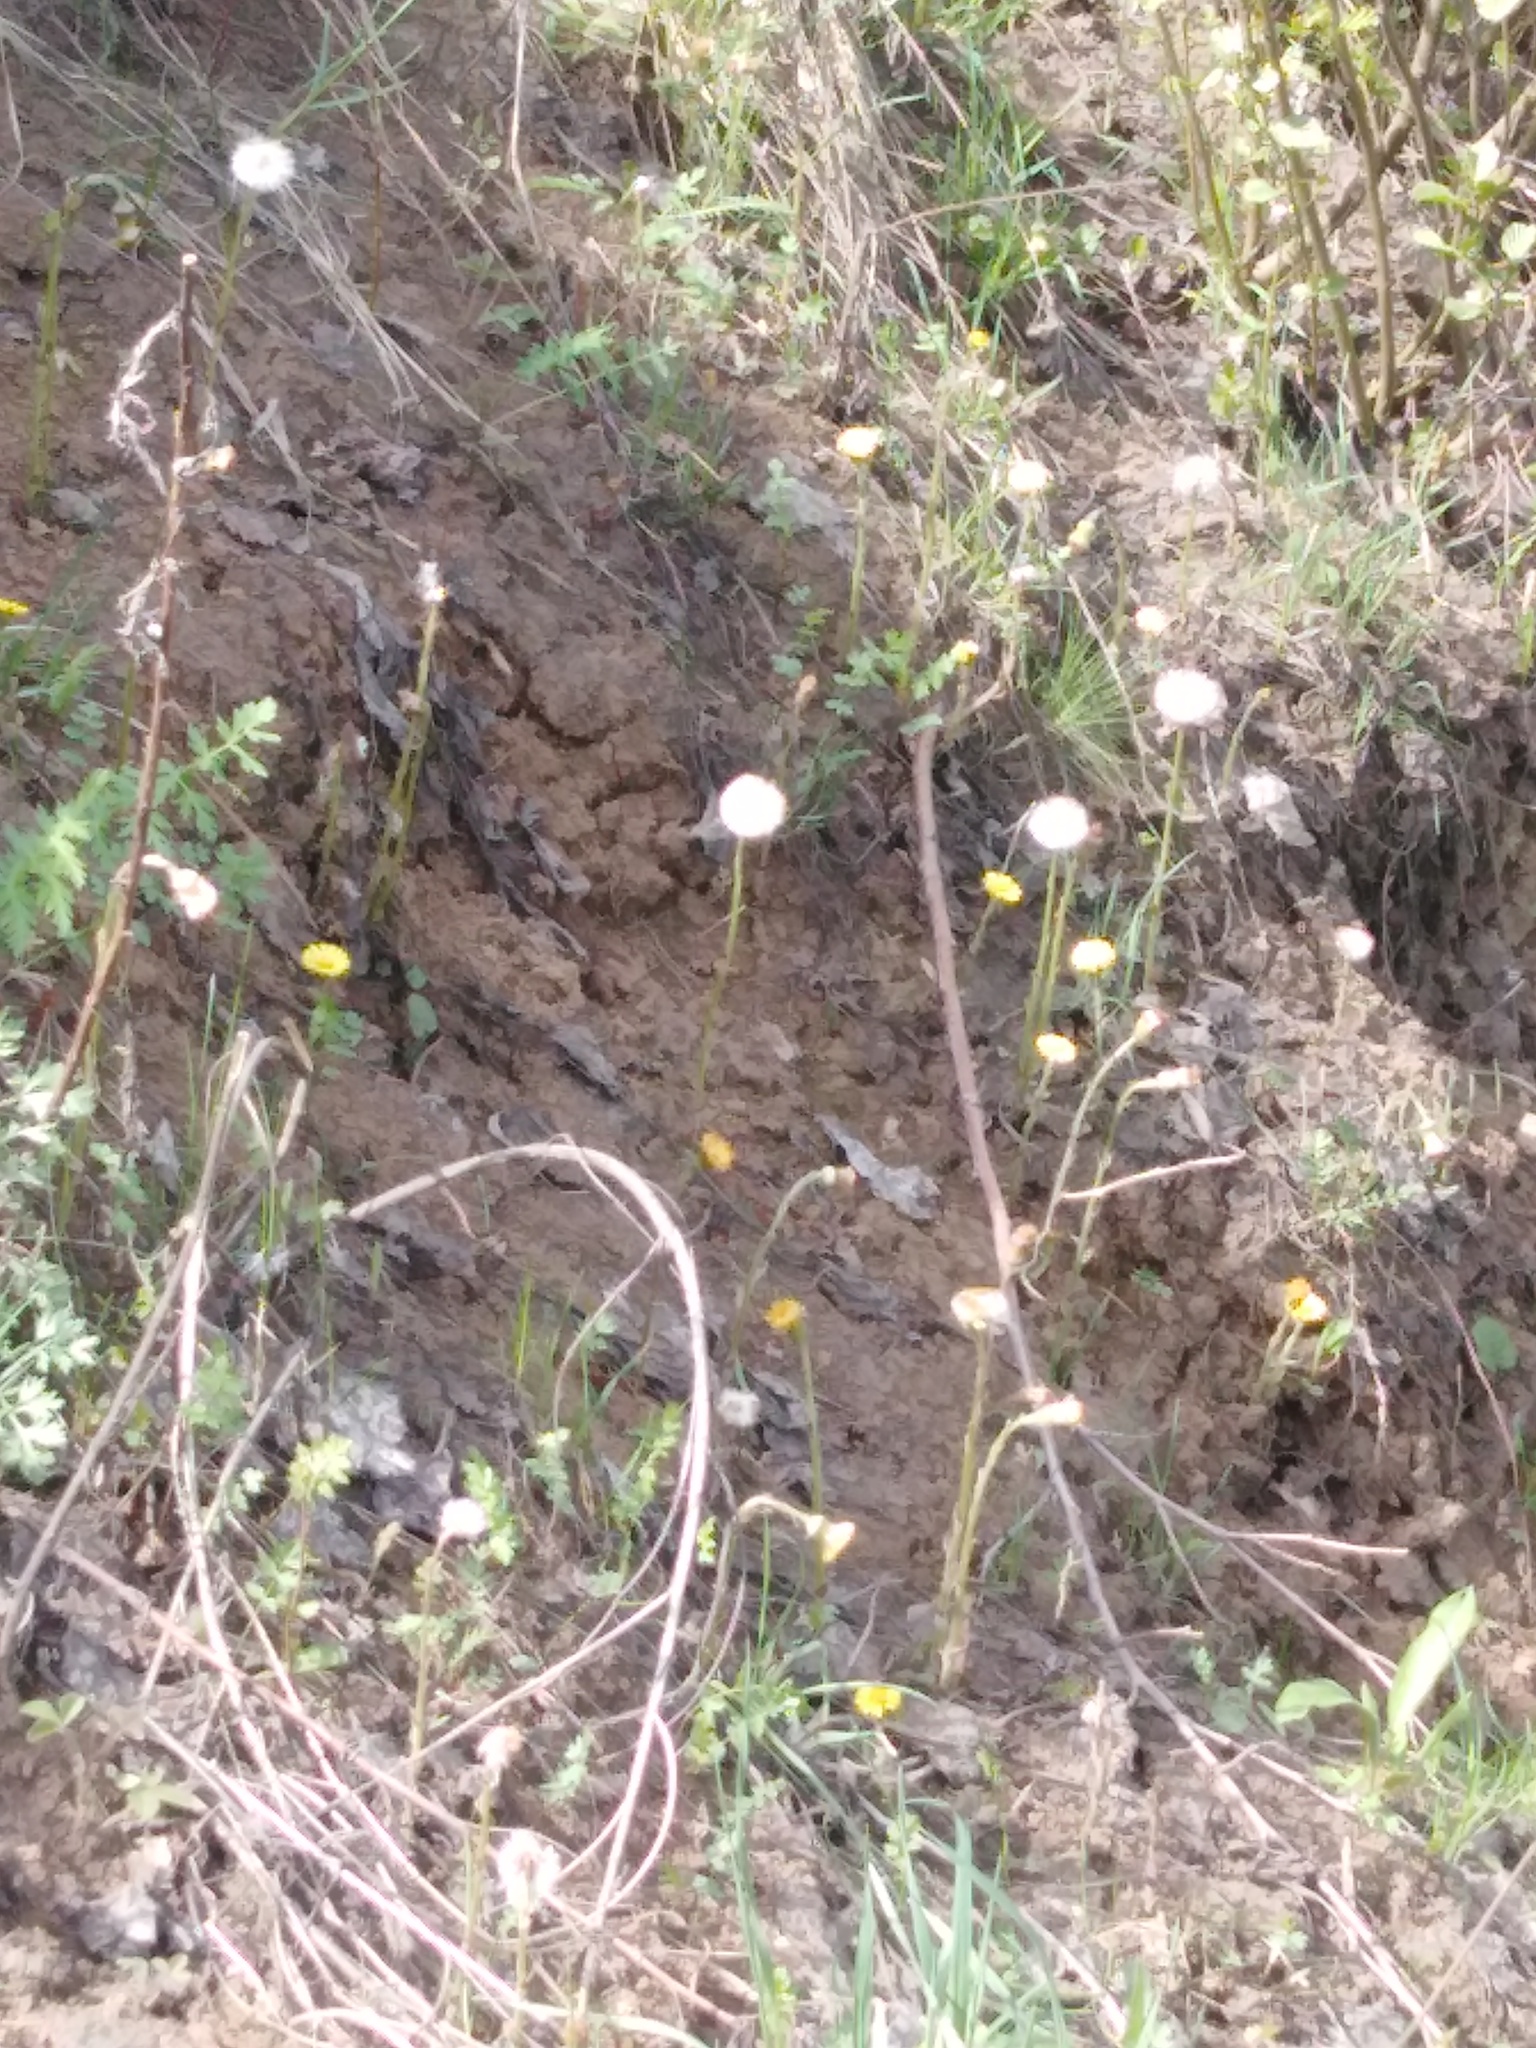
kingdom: Plantae
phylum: Tracheophyta
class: Magnoliopsida
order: Asterales
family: Asteraceae
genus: Tussilago
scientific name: Tussilago farfara
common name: Coltsfoot
